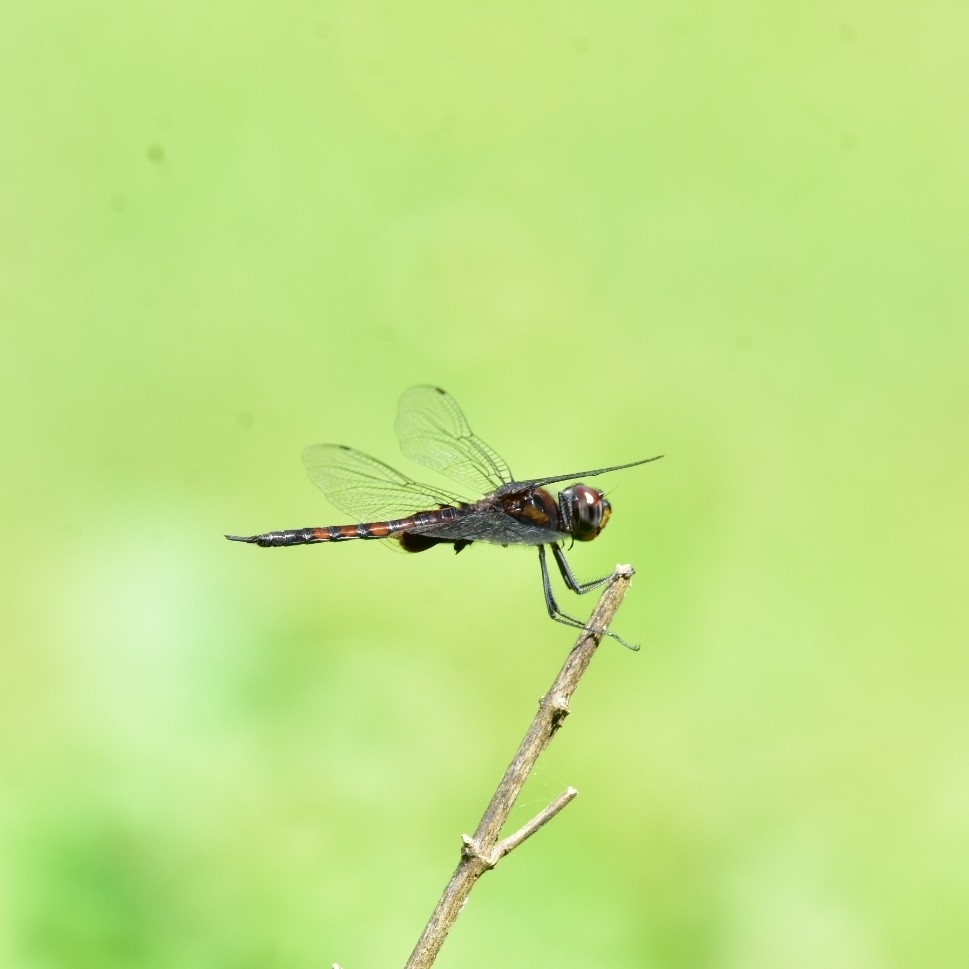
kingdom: Animalia
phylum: Arthropoda
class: Insecta
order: Odonata
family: Libellulidae
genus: Tramea
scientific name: Tramea limbata
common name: Ferruginous glider
